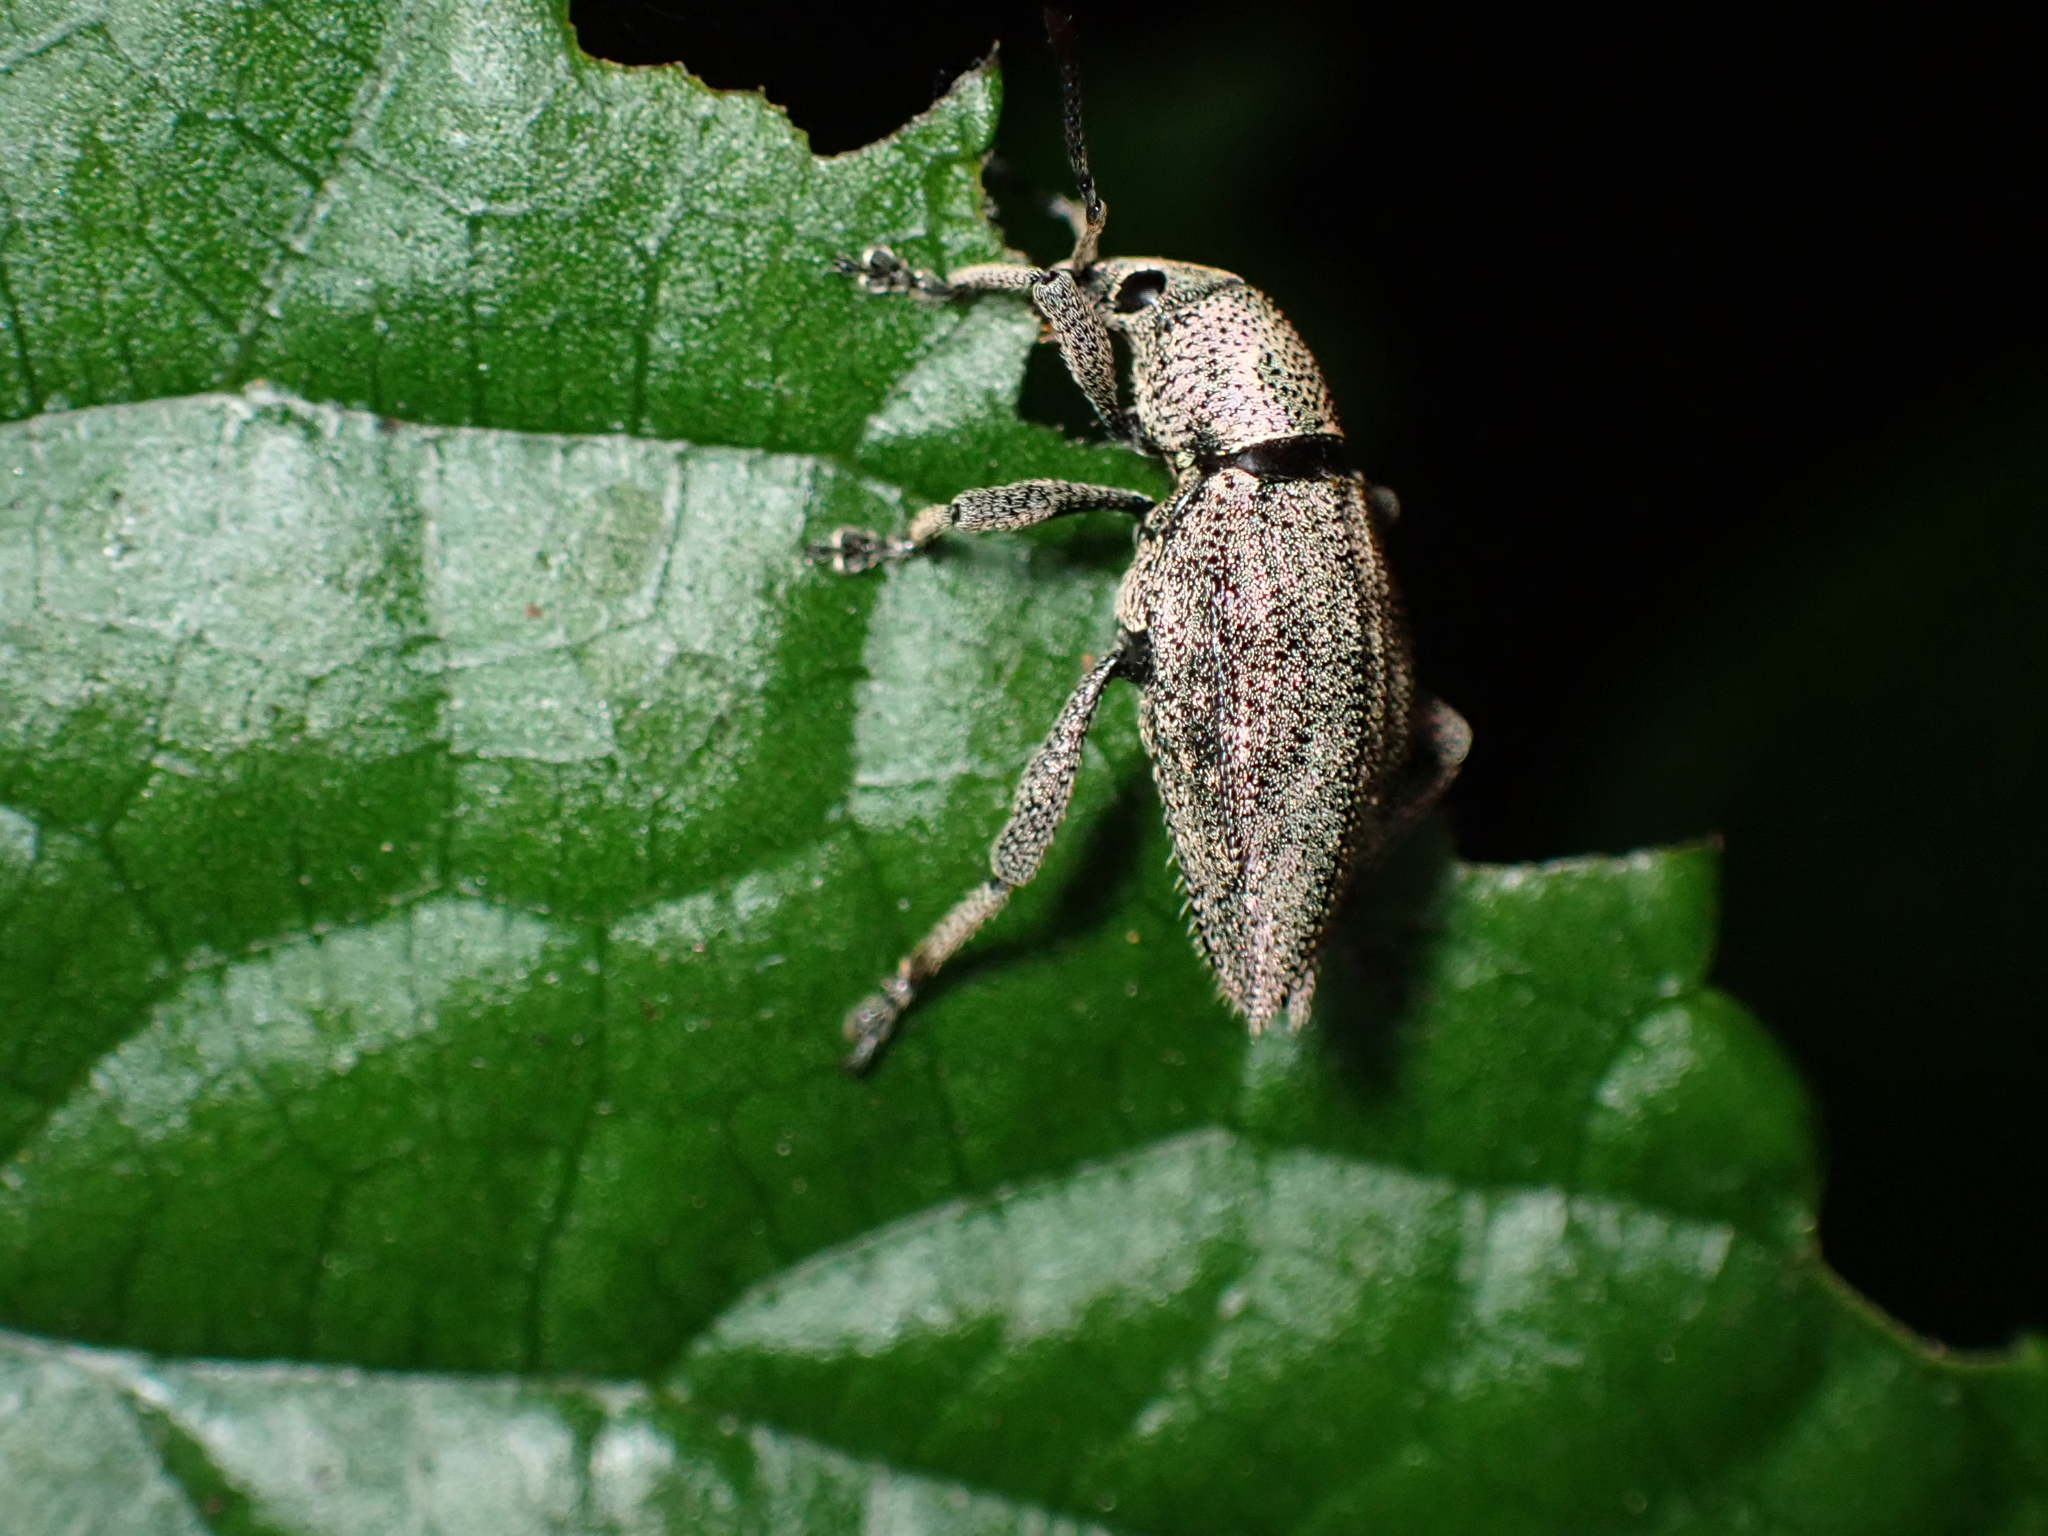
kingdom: Animalia
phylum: Arthropoda
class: Insecta
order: Coleoptera
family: Curculionidae
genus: Elytrurus
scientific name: Elytrurus marginatus
